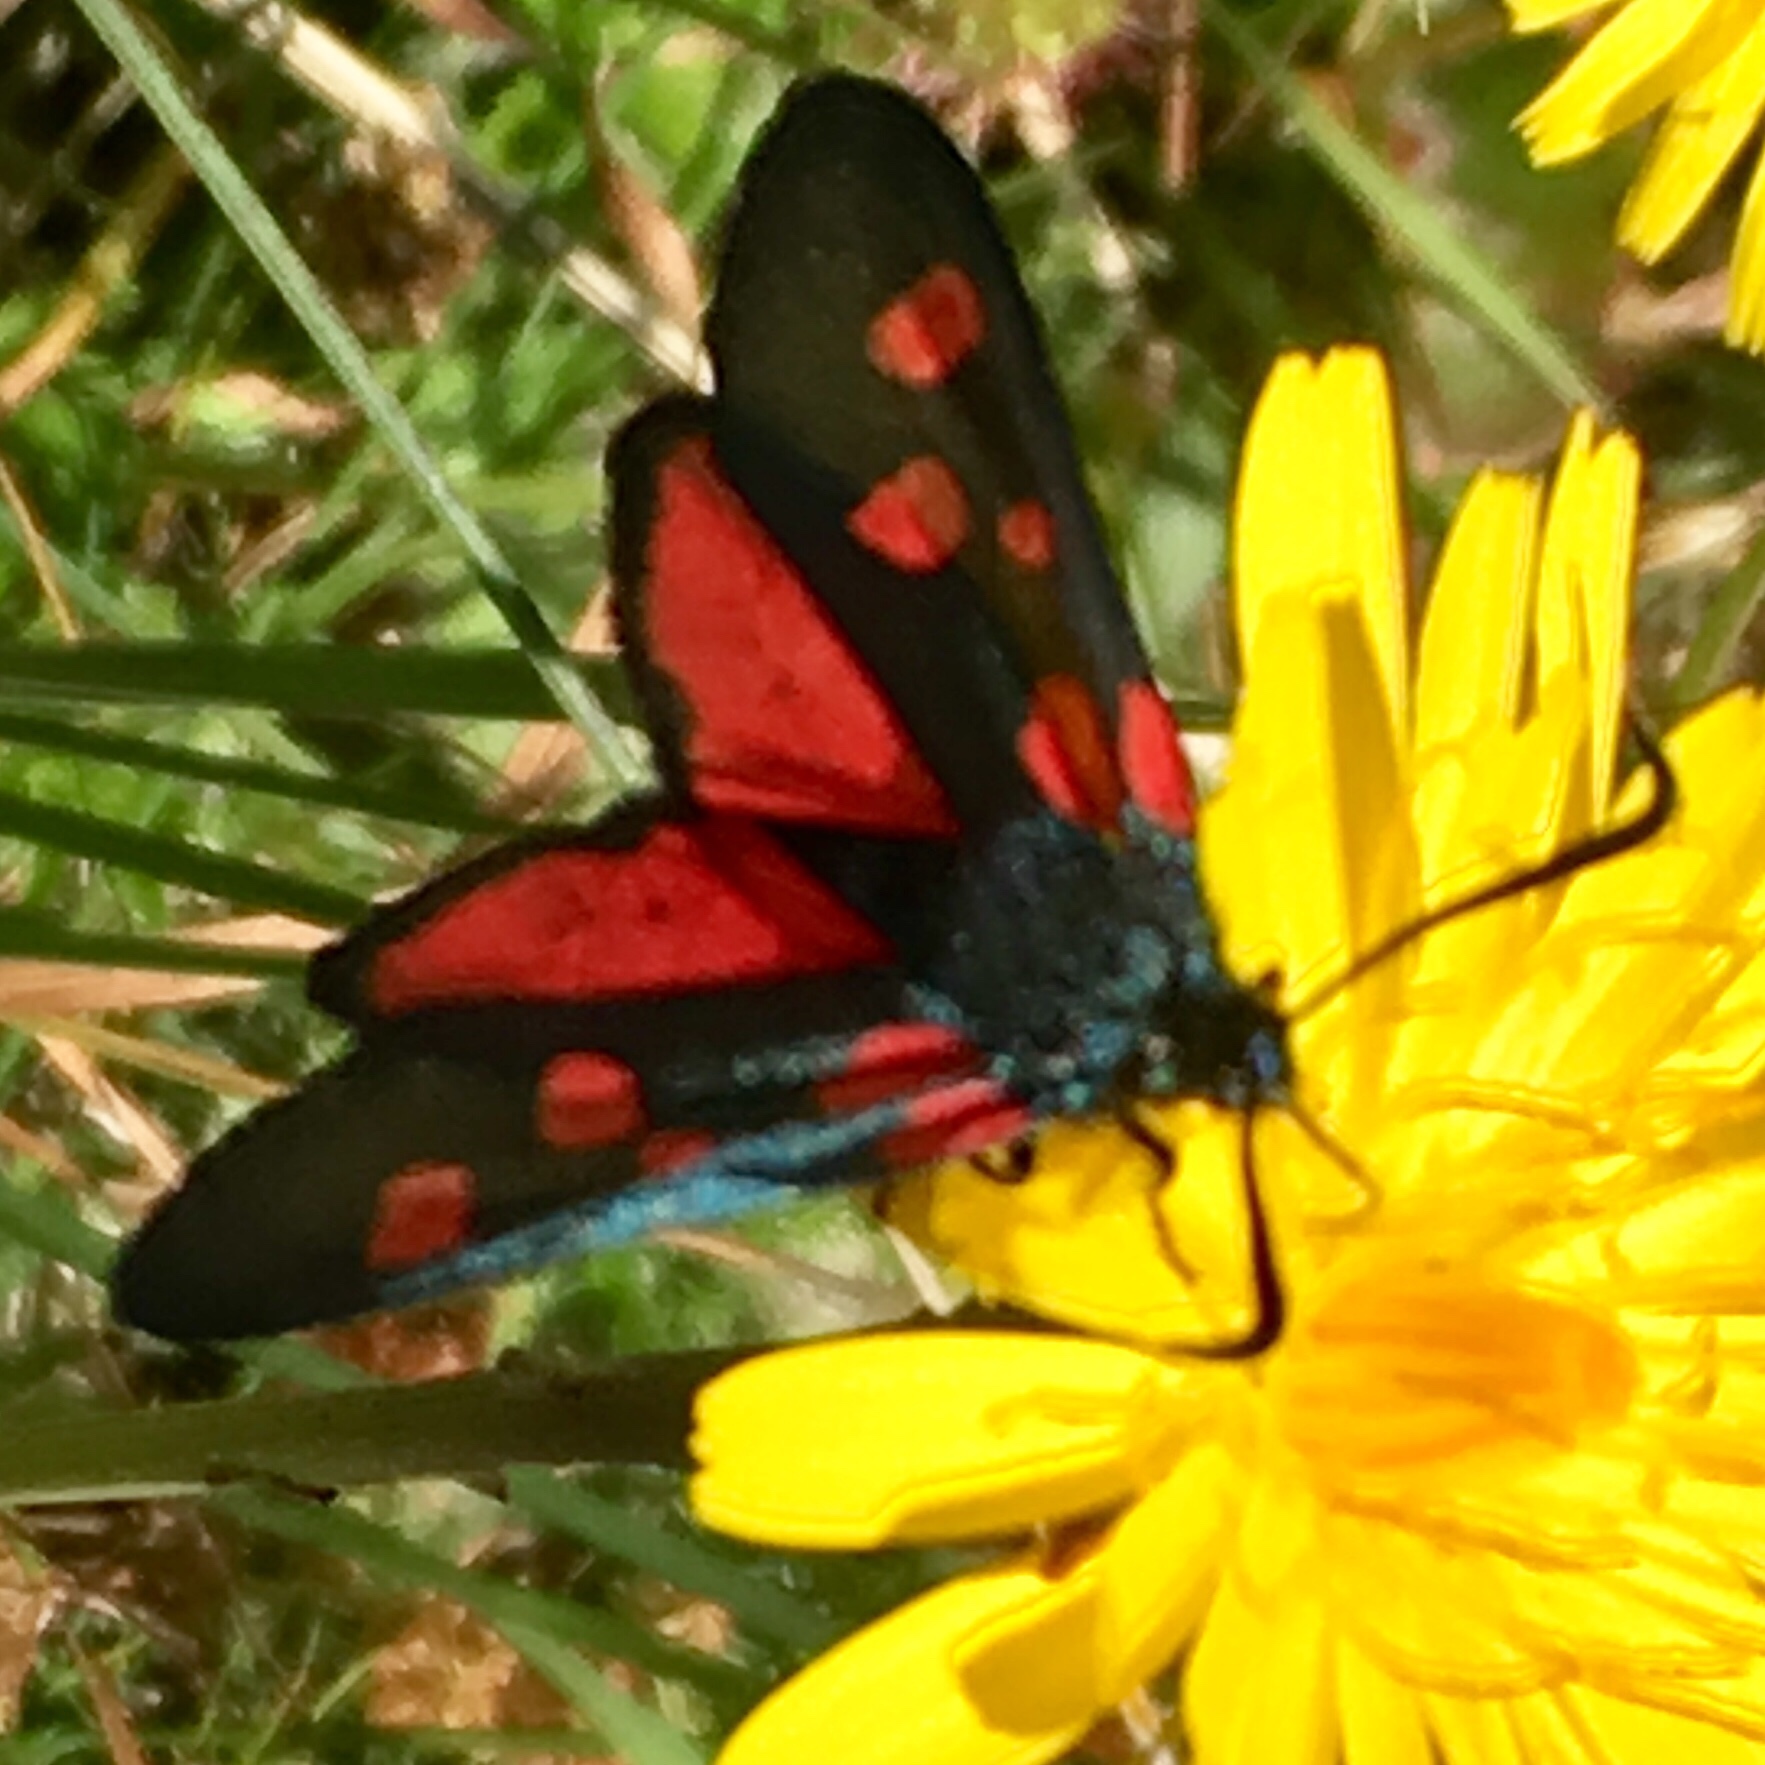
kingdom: Animalia
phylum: Arthropoda
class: Insecta
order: Lepidoptera
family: Zygaenidae
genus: Zygaena
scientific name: Zygaena lonicerae
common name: Narrow-bordered five-spot burnet
